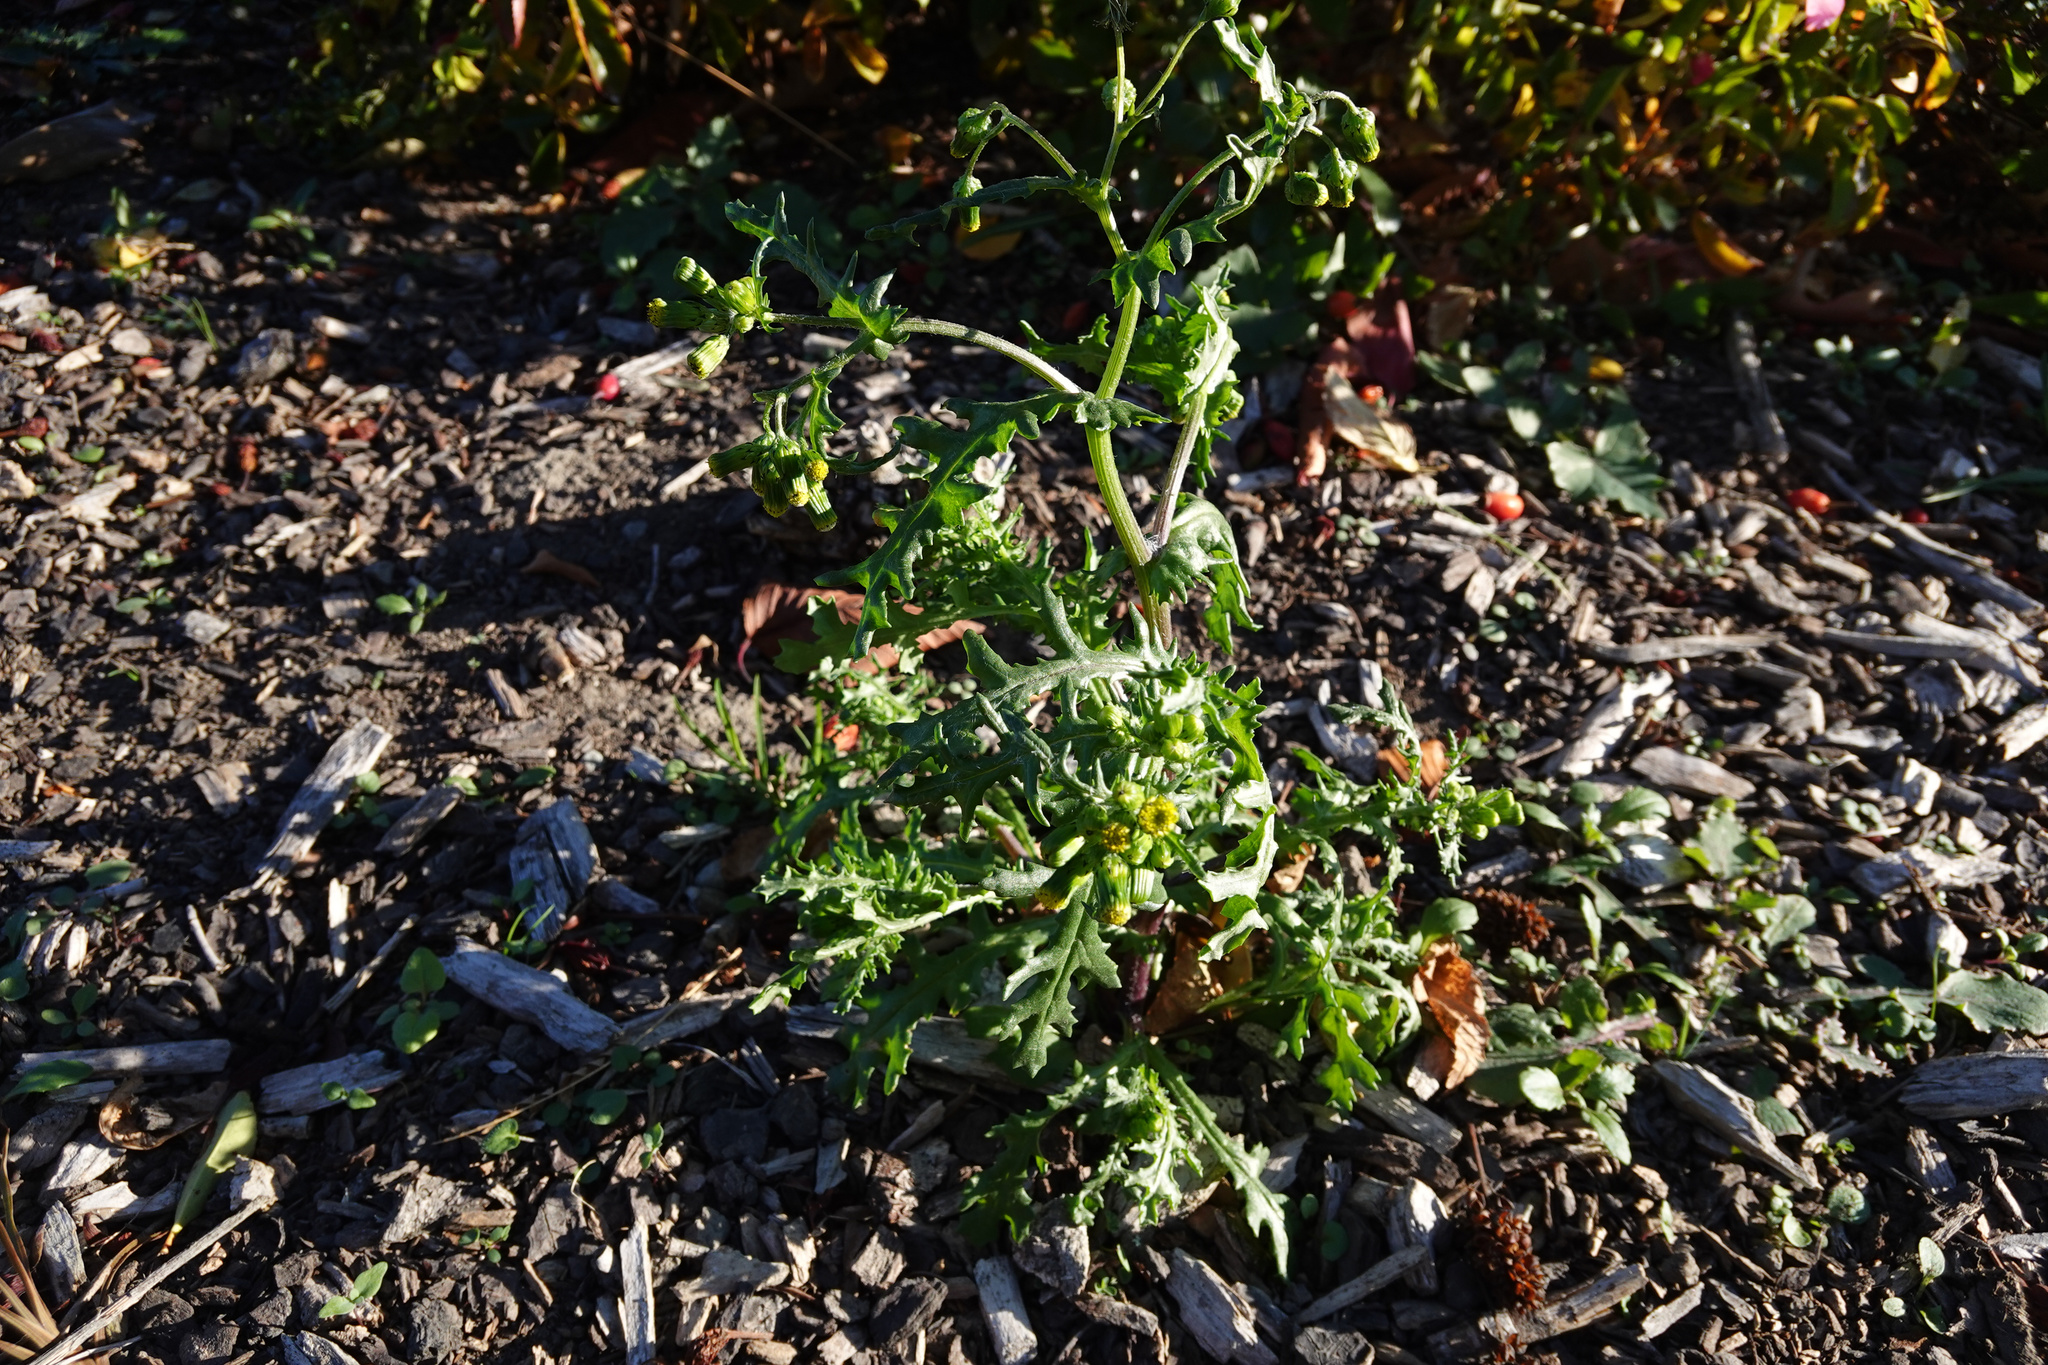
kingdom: Plantae
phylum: Tracheophyta
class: Magnoliopsida
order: Asterales
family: Asteraceae
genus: Senecio
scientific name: Senecio vulgaris
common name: Old-man-in-the-spring
